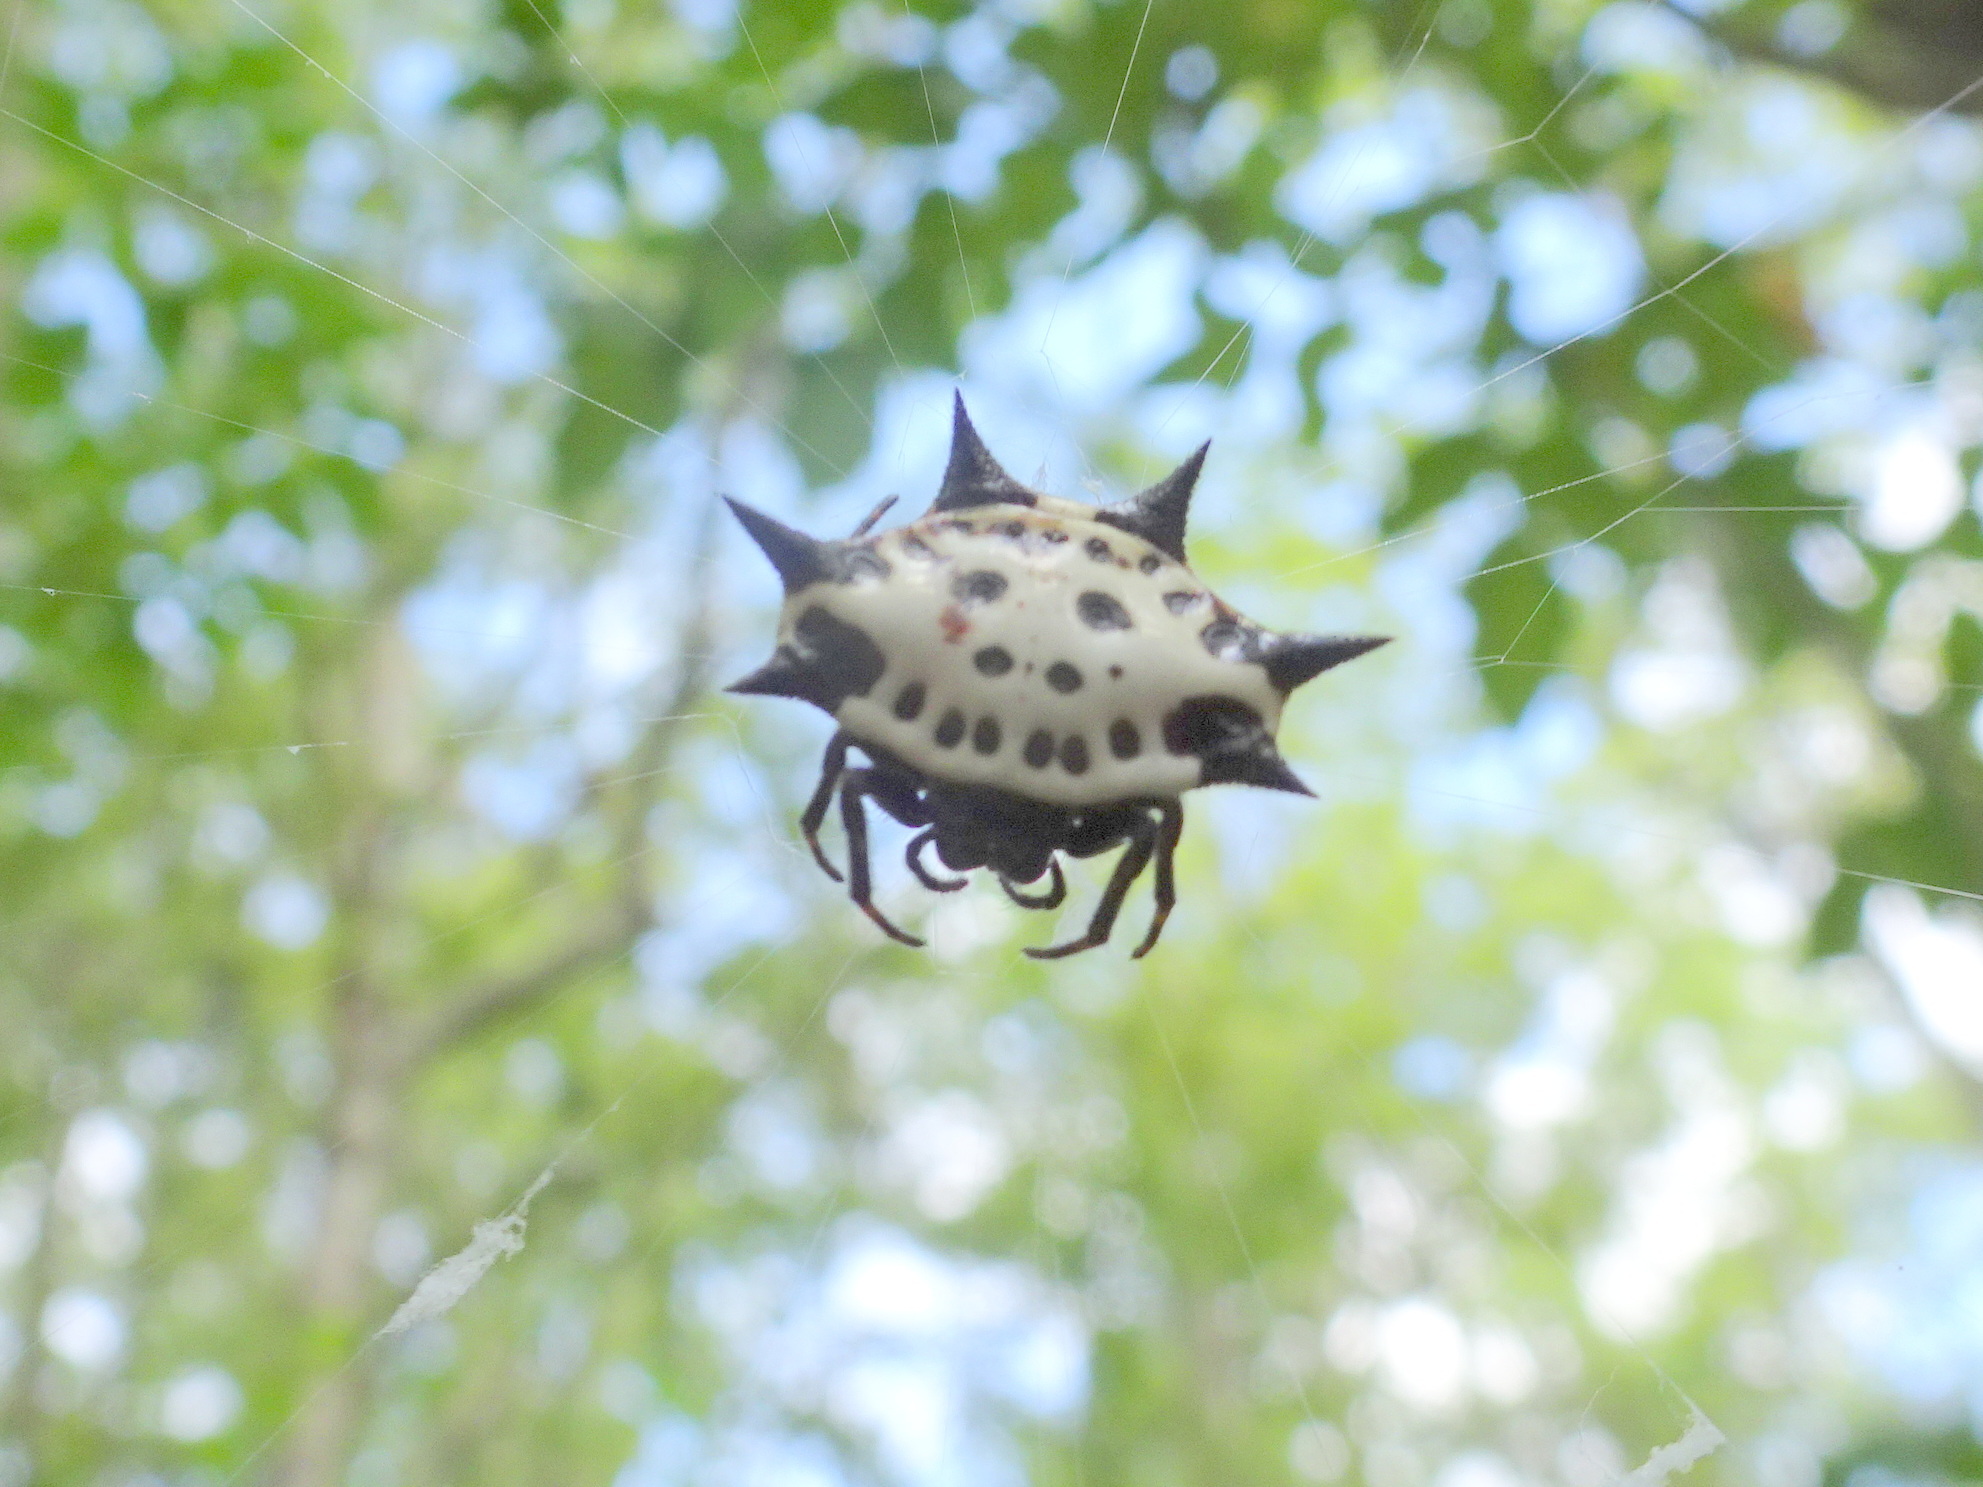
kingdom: Animalia
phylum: Arthropoda
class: Arachnida
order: Araneae
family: Araneidae
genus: Gasteracantha
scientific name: Gasteracantha cancriformis
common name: Orb weavers
